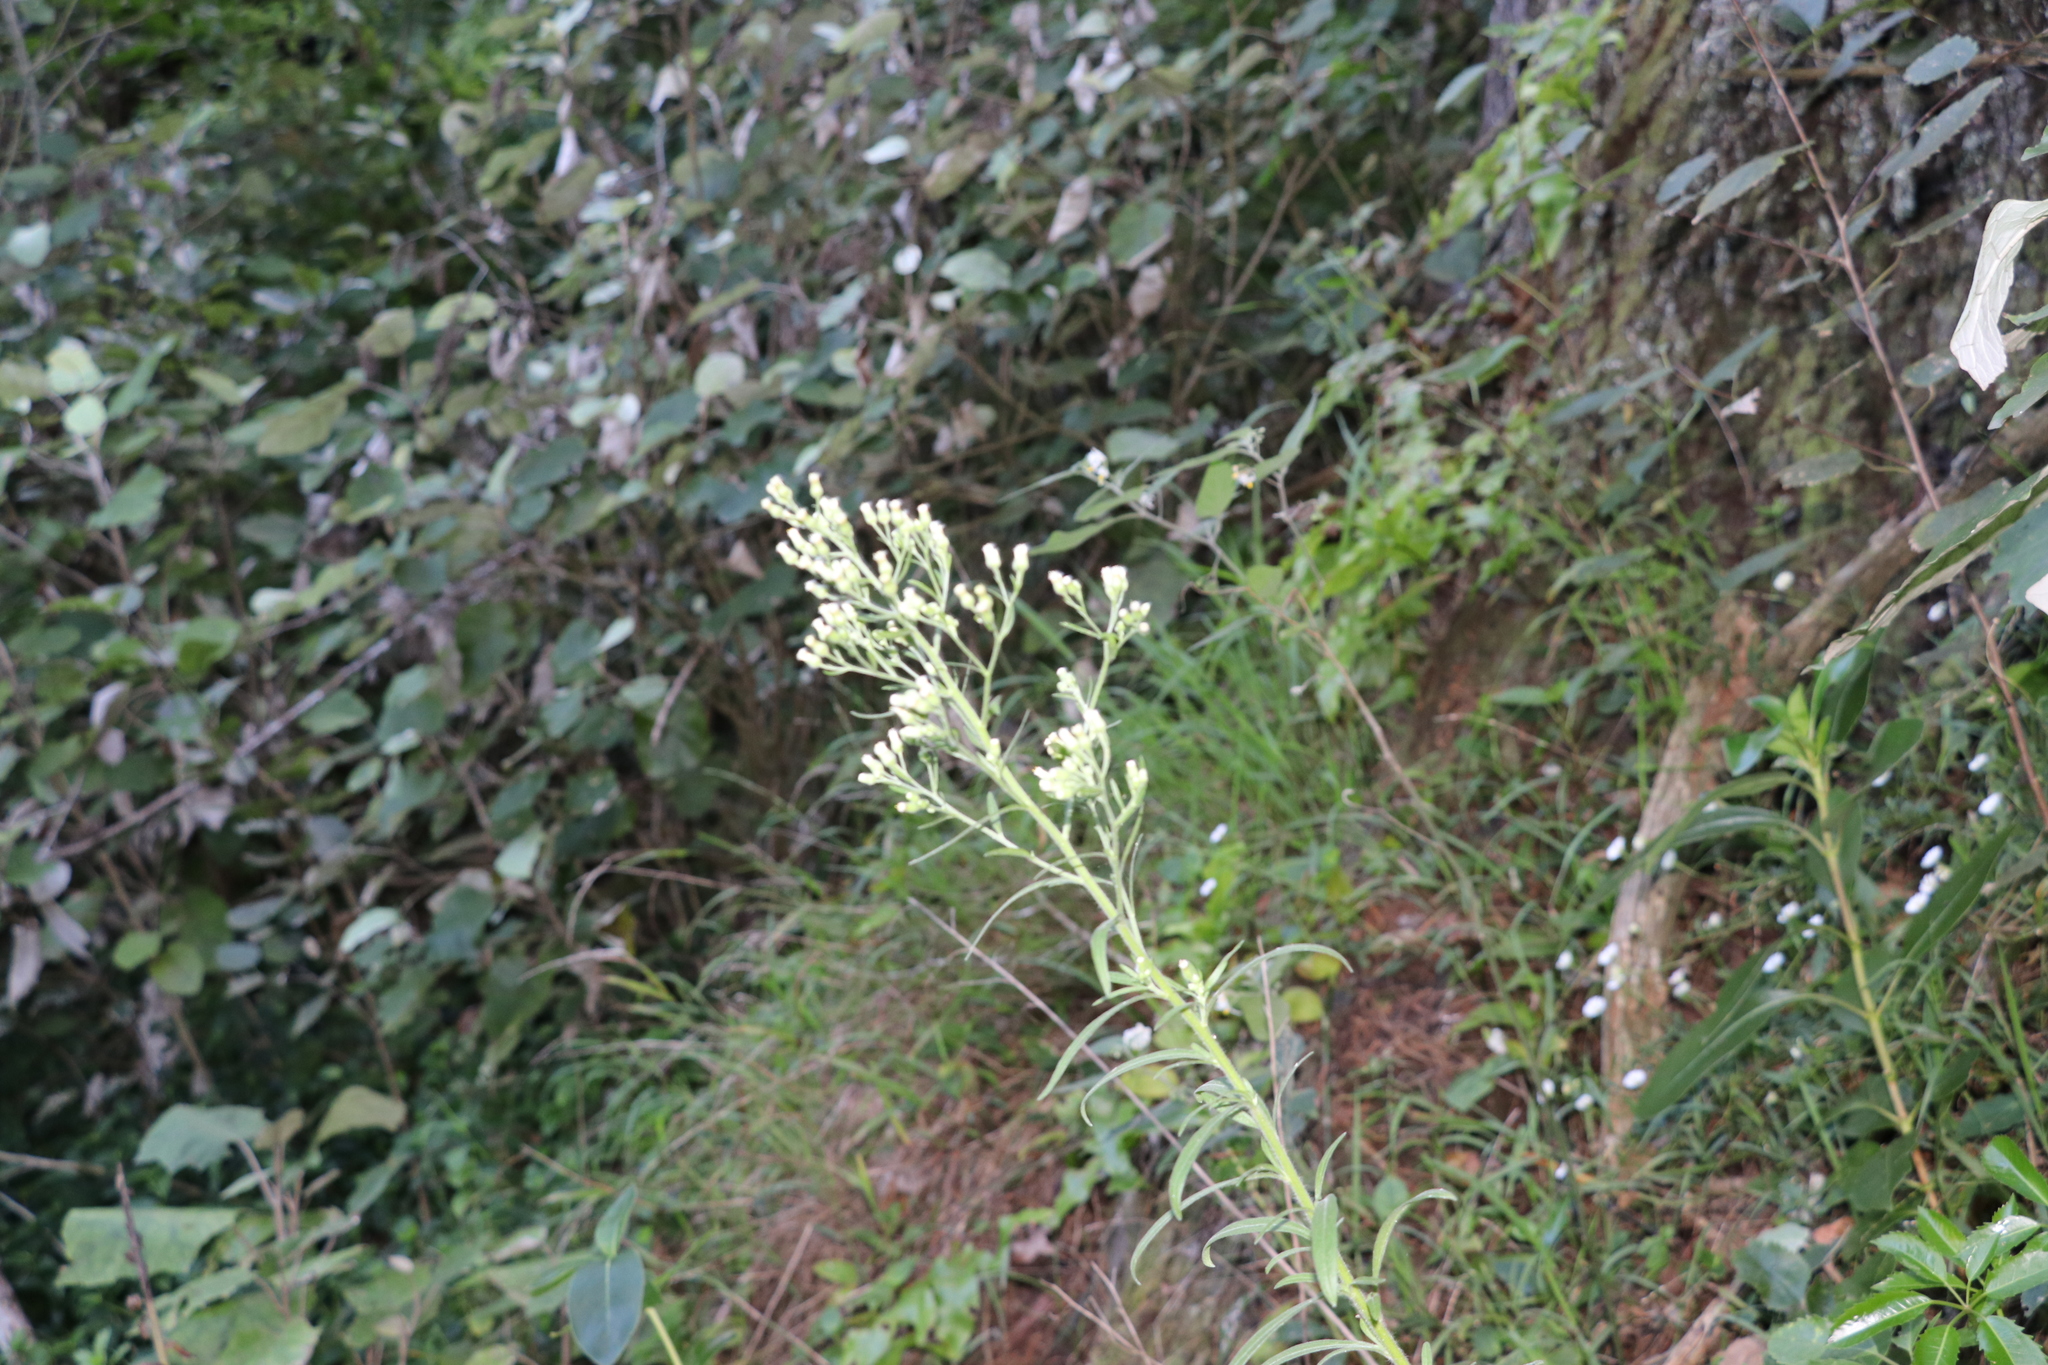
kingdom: Plantae
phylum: Tracheophyta
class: Magnoliopsida
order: Asterales
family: Asteraceae
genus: Erigeron
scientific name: Erigeron sumatrensis
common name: Daisy
